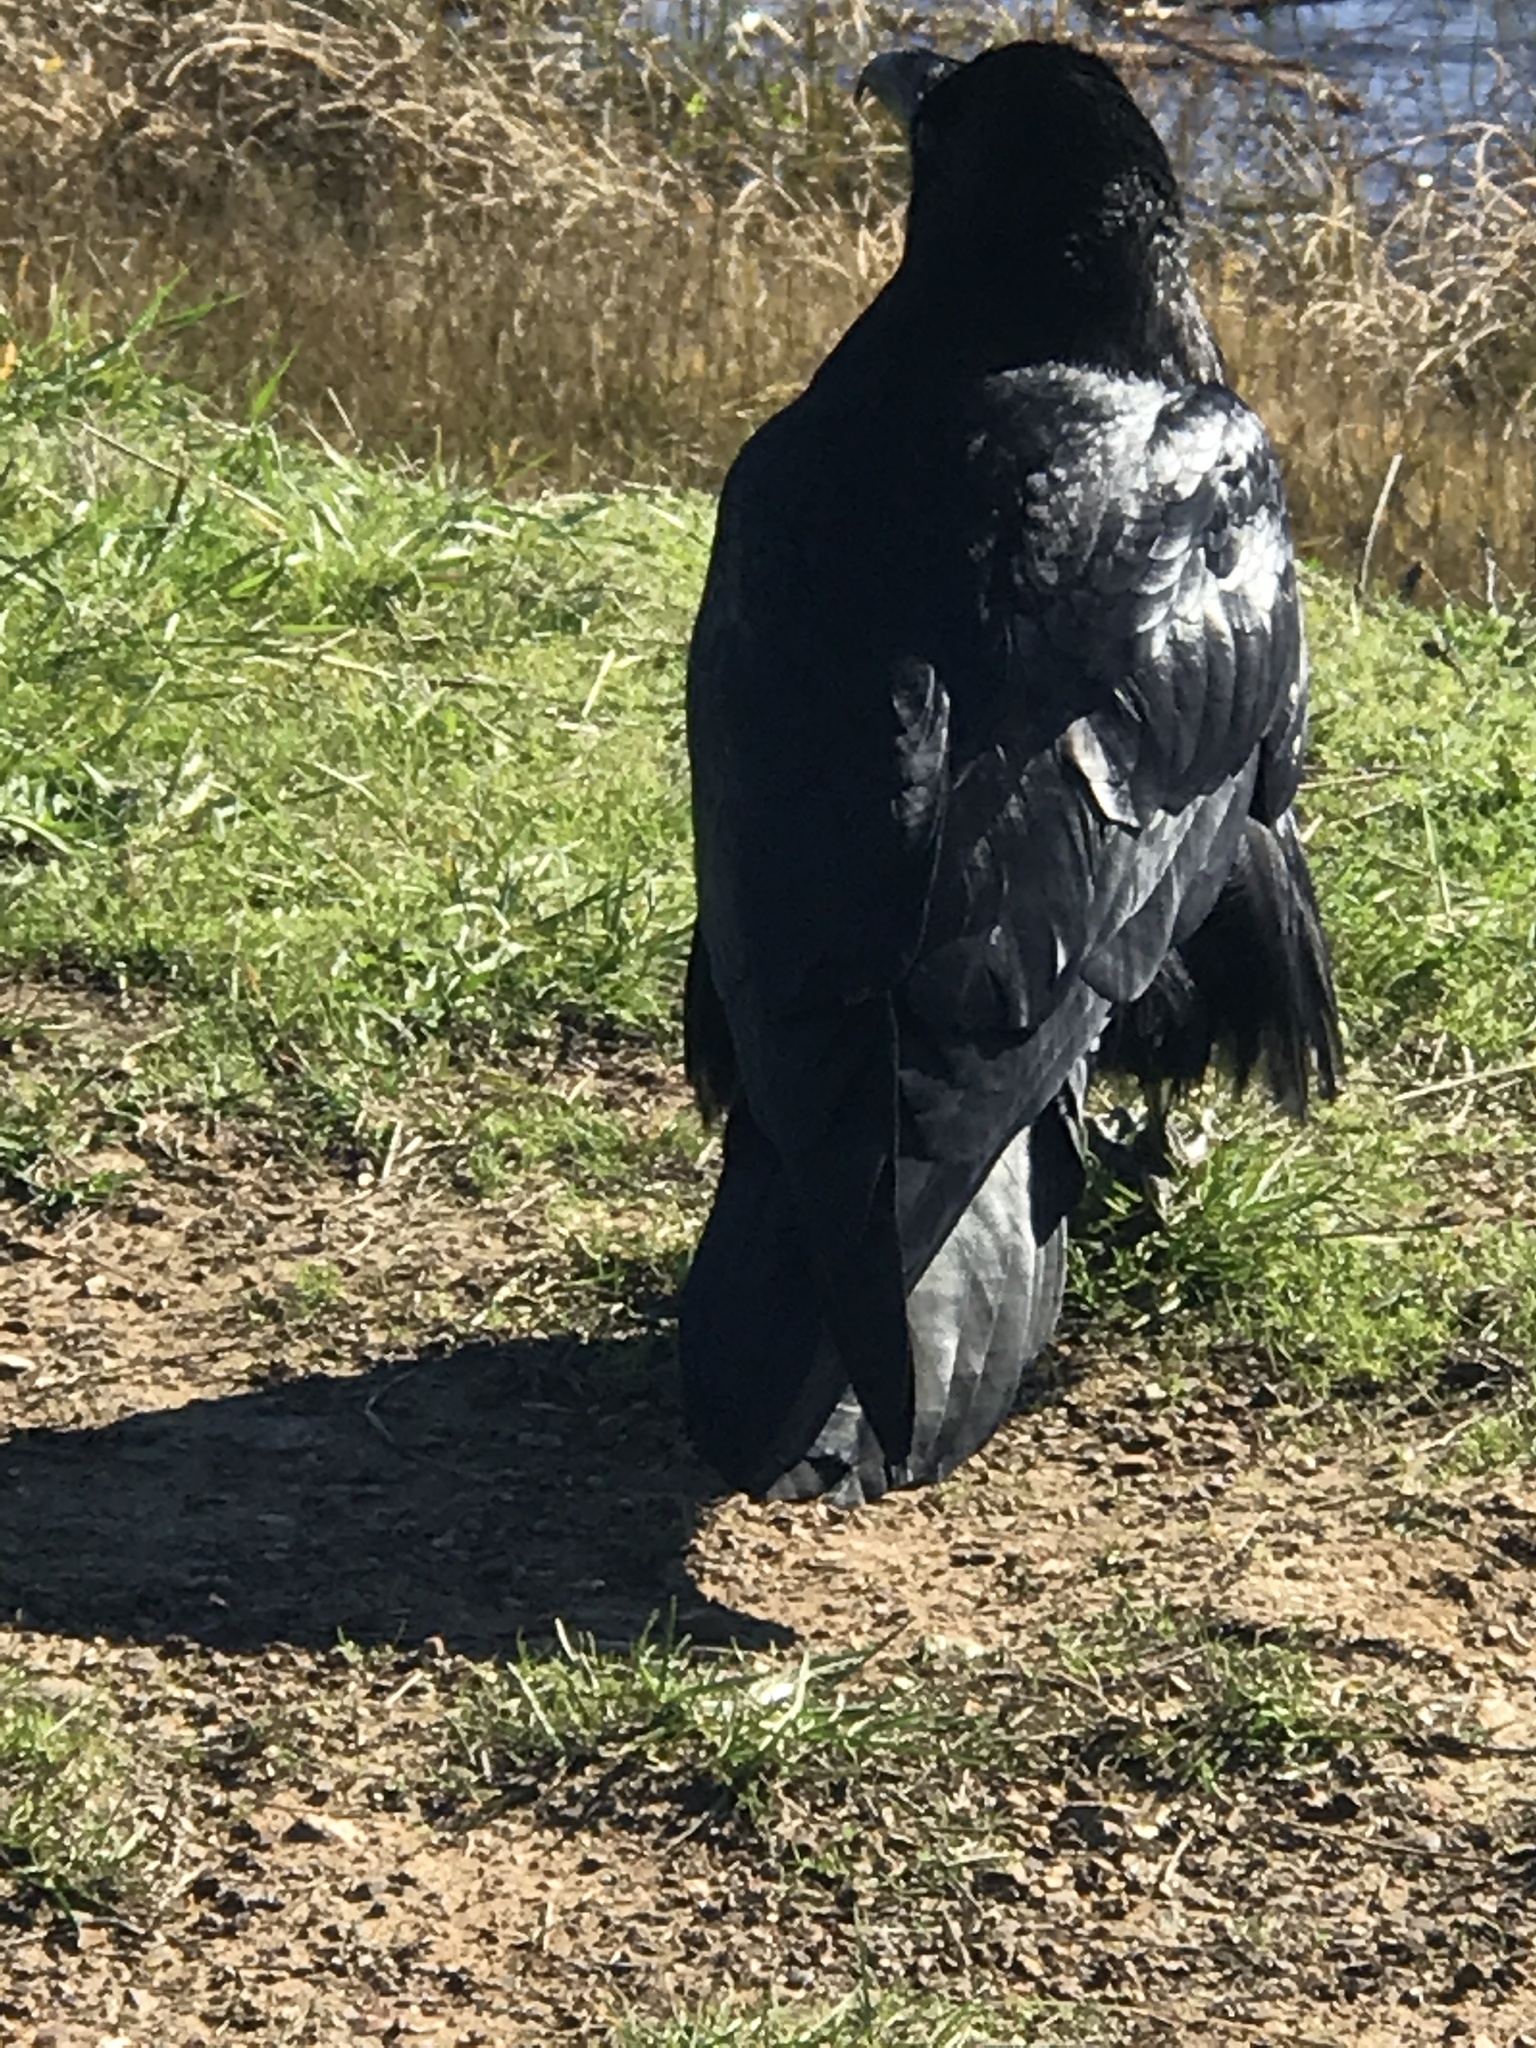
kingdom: Animalia
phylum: Chordata
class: Aves
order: Passeriformes
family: Corvidae
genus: Corvus
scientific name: Corvus corax
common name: Common raven
